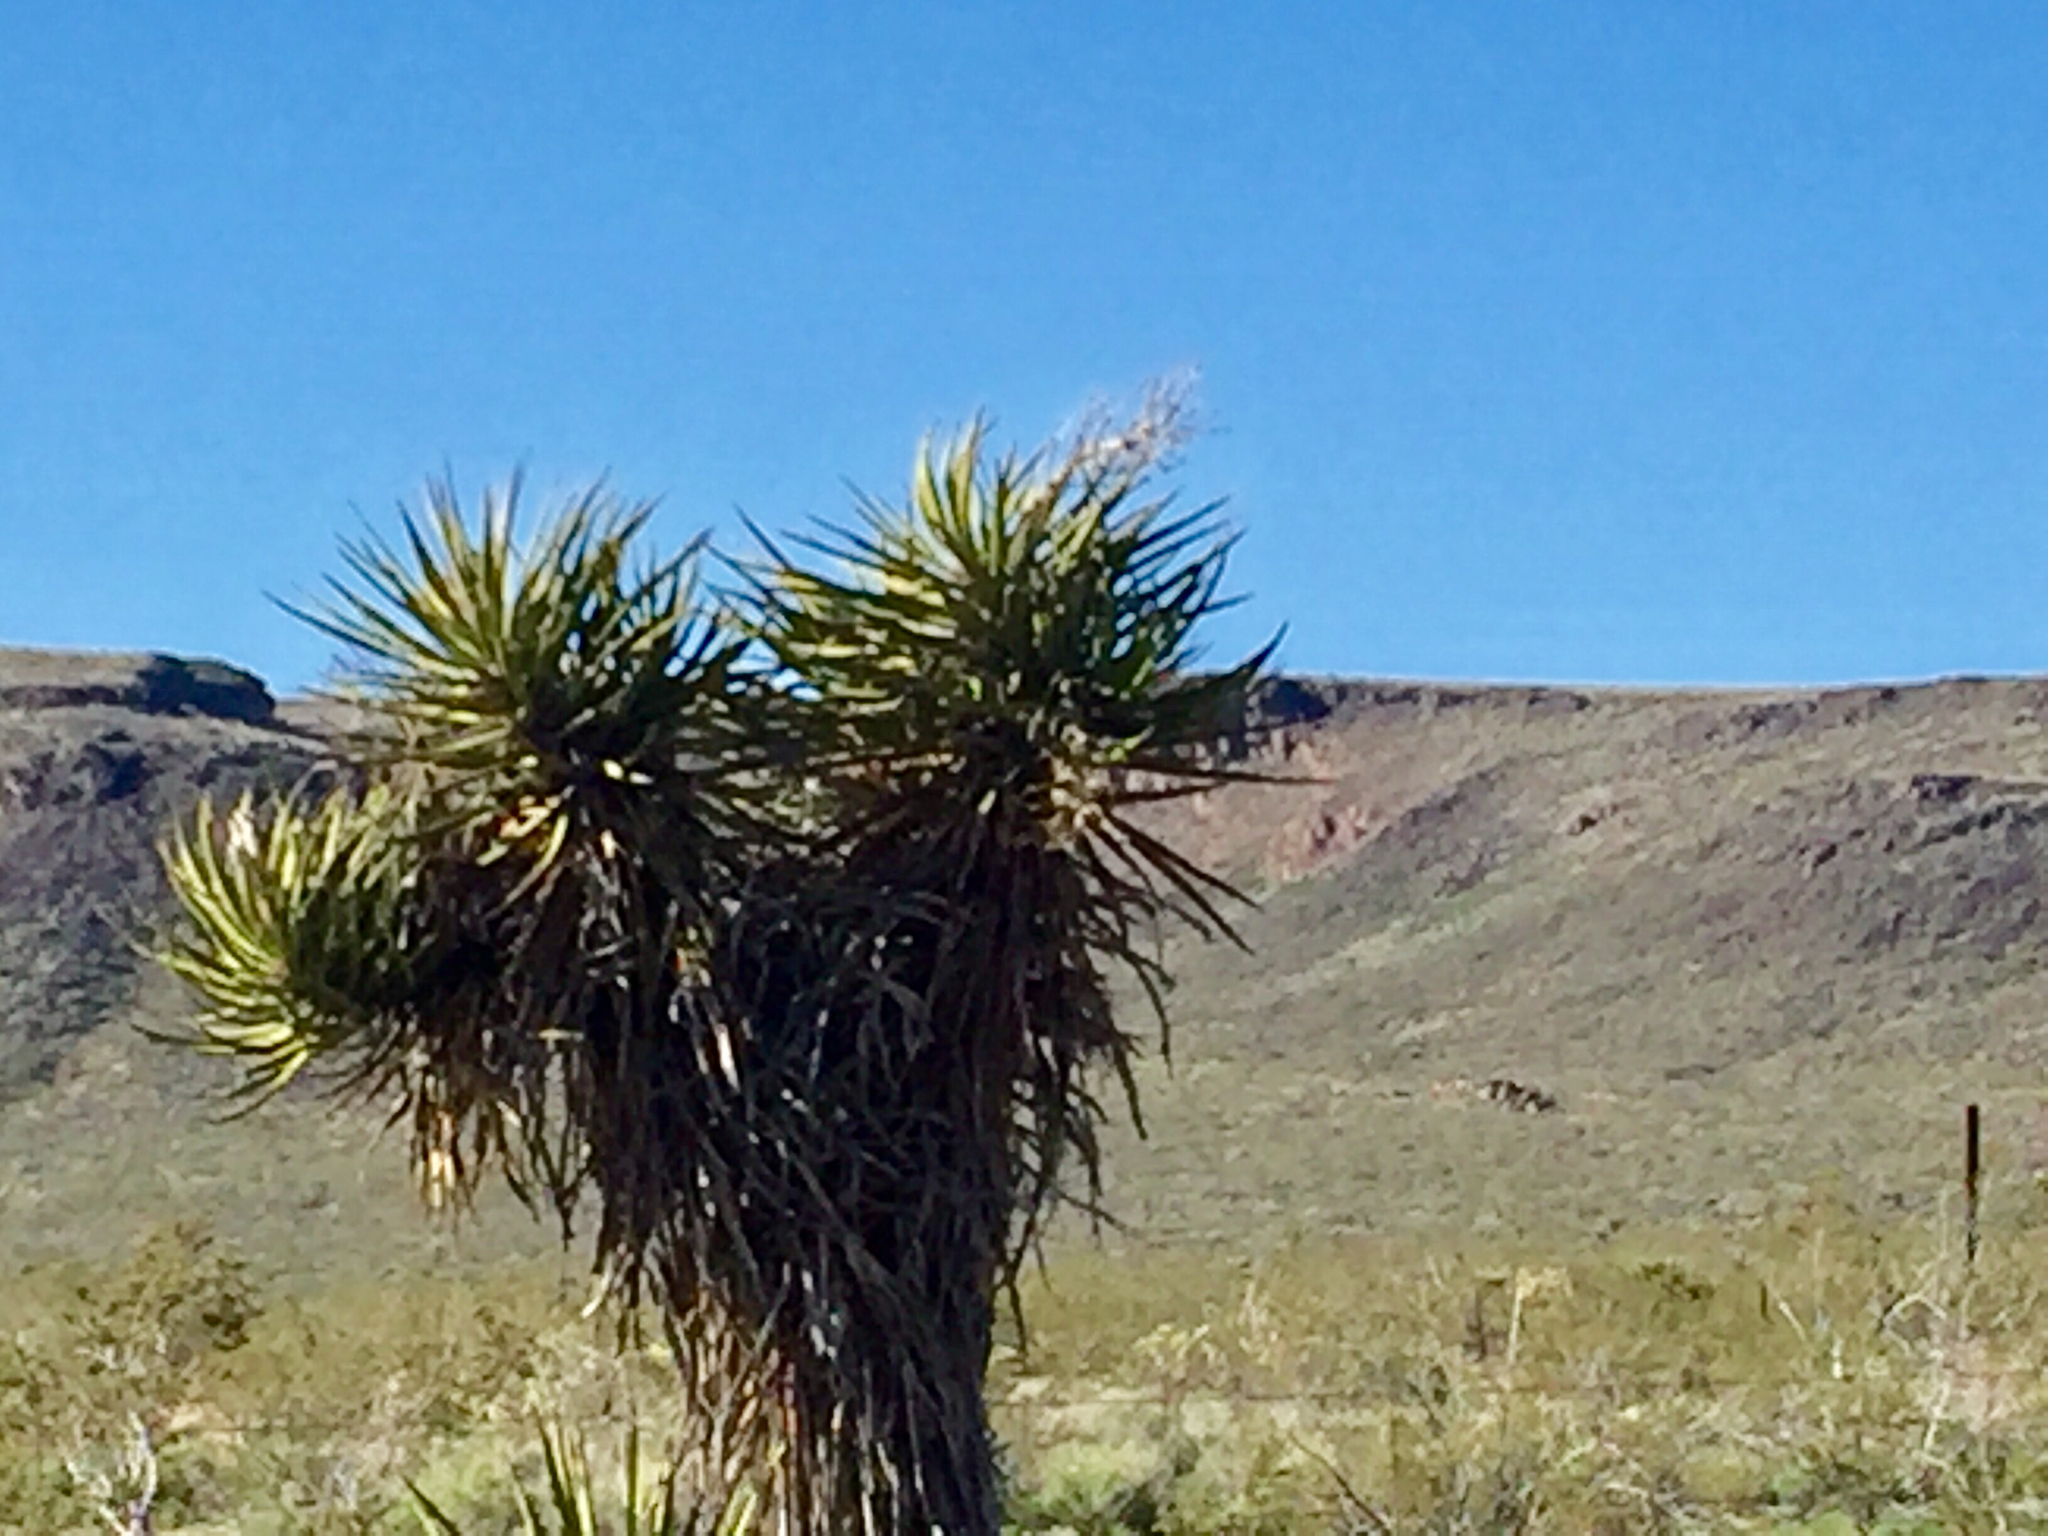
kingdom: Plantae
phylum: Tracheophyta
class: Liliopsida
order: Asparagales
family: Asparagaceae
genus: Yucca
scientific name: Yucca schidigera
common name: Mojave yucca
